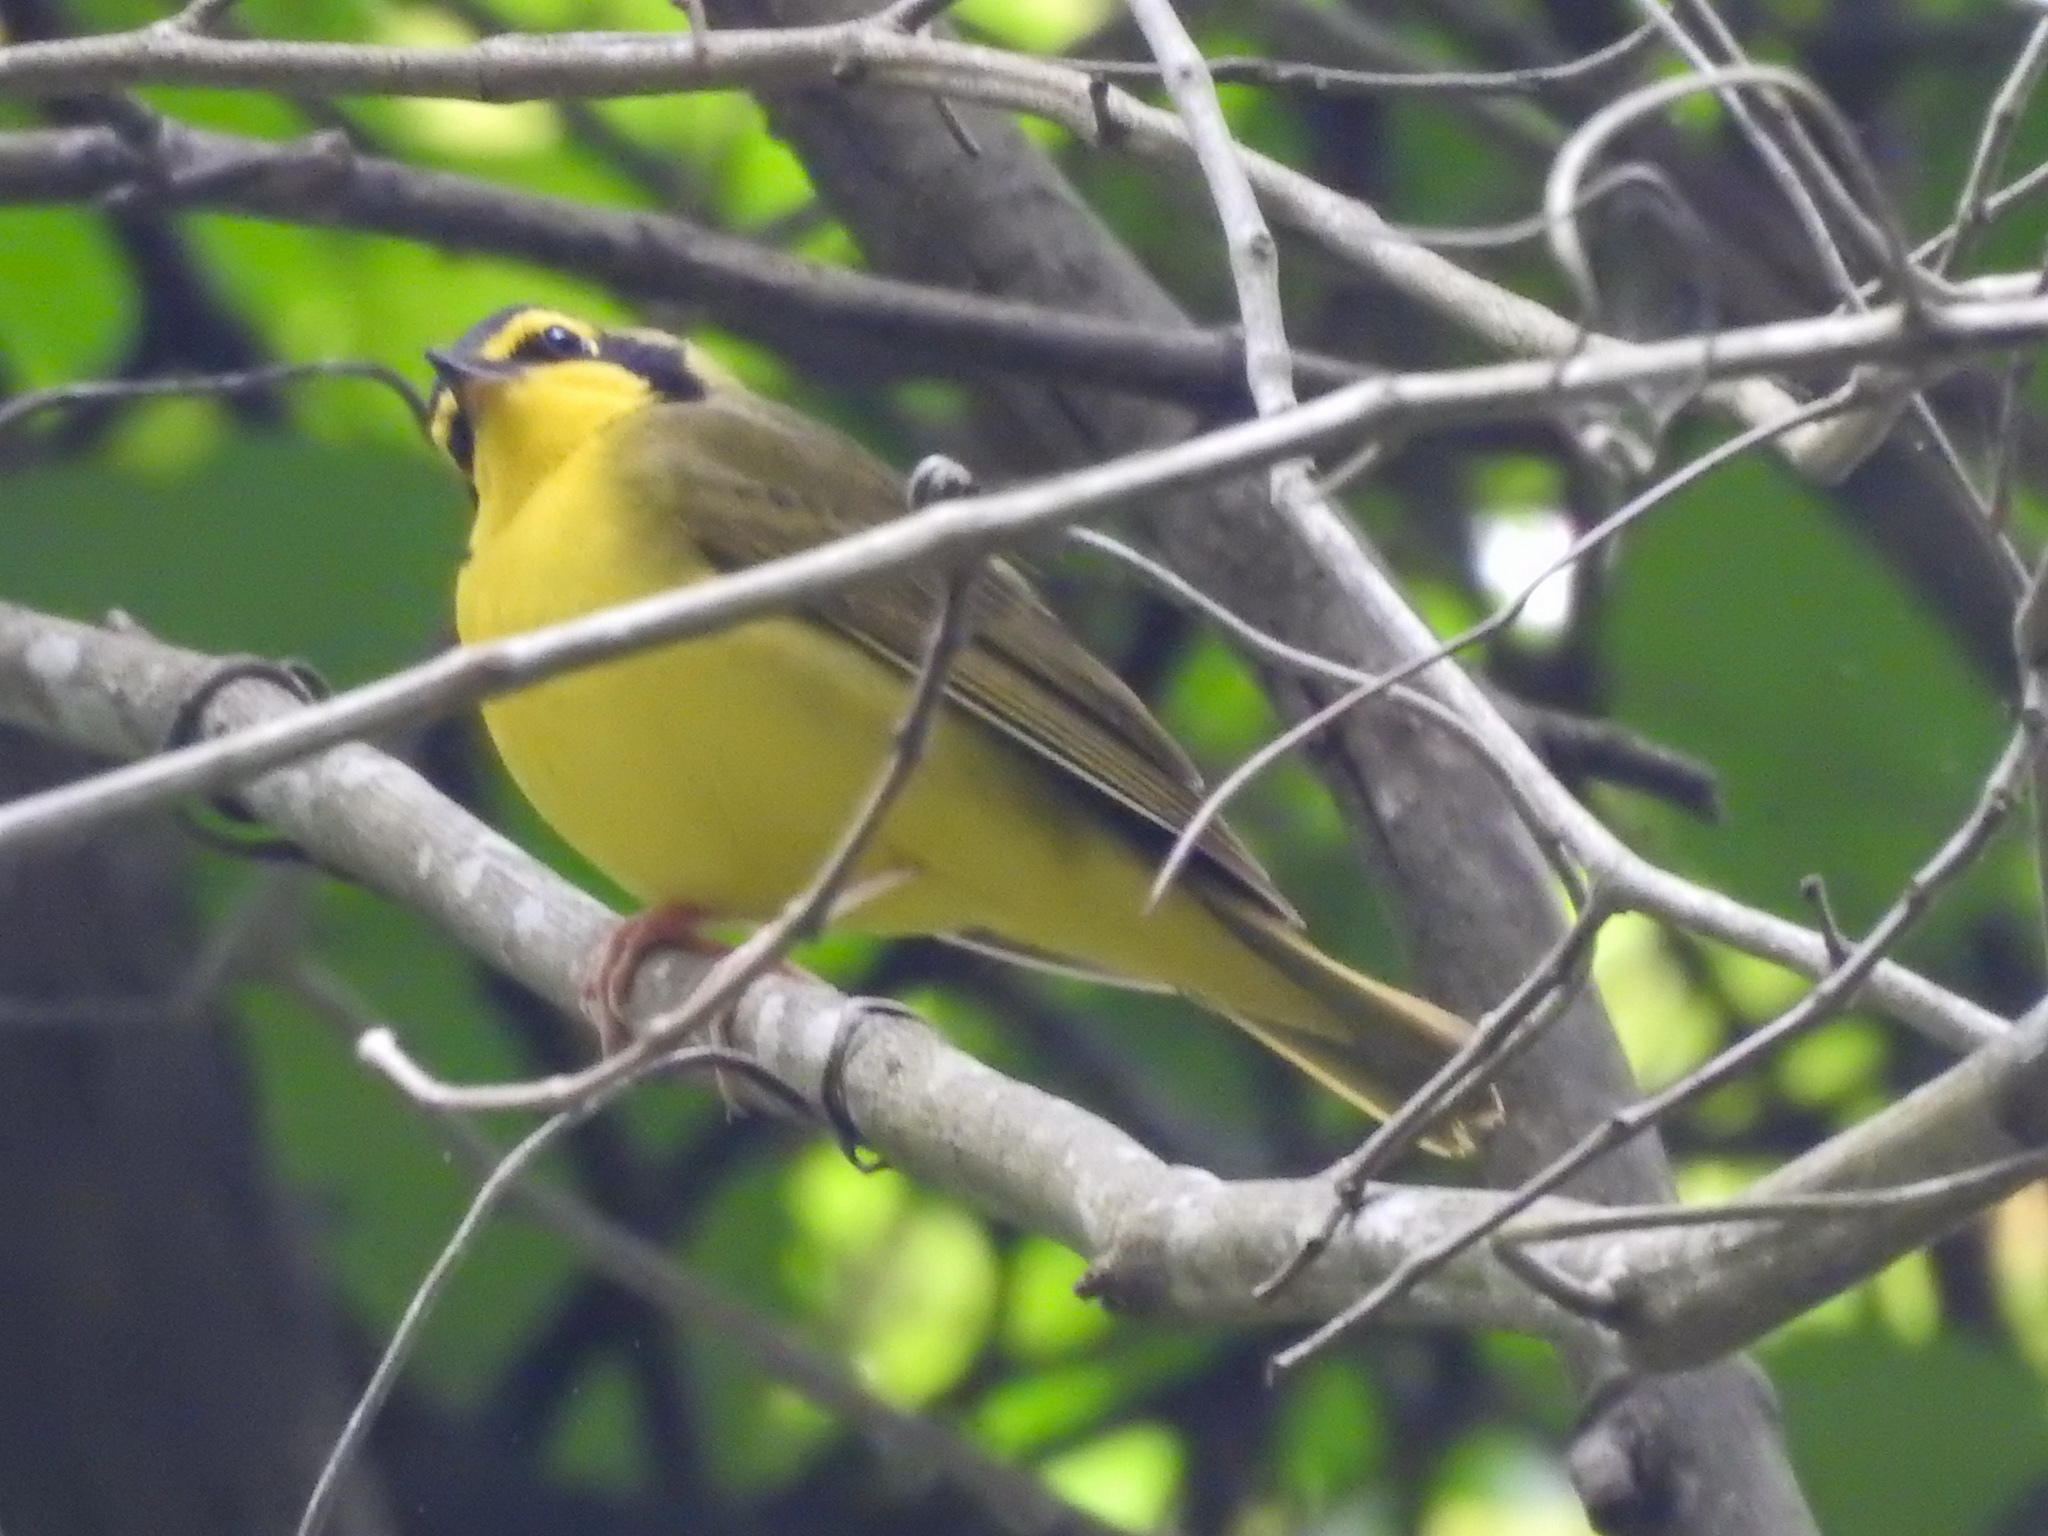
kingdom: Animalia
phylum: Chordata
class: Aves
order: Passeriformes
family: Parulidae
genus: Geothlypis
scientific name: Geothlypis formosa
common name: Kentucky warbler
